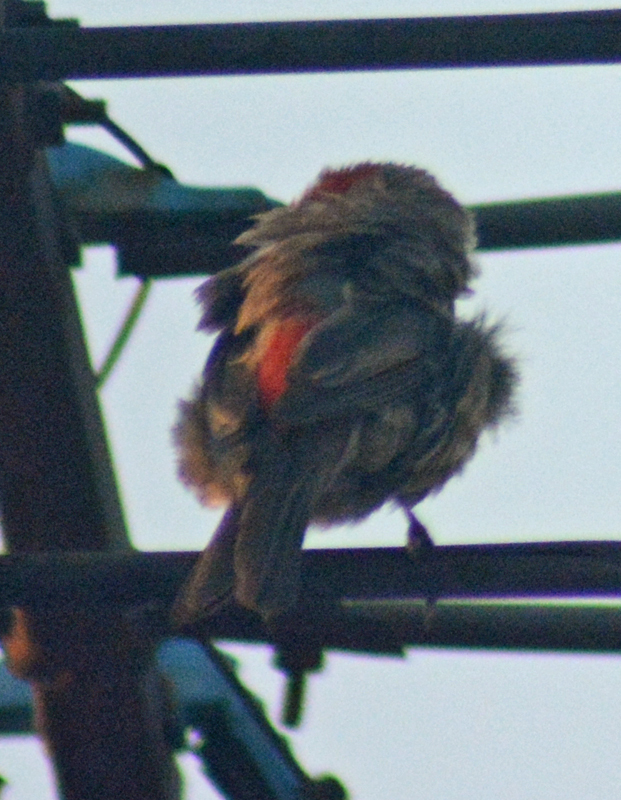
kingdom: Animalia
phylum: Chordata
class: Aves
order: Passeriformes
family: Fringillidae
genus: Haemorhous
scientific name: Haemorhous mexicanus
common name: House finch
